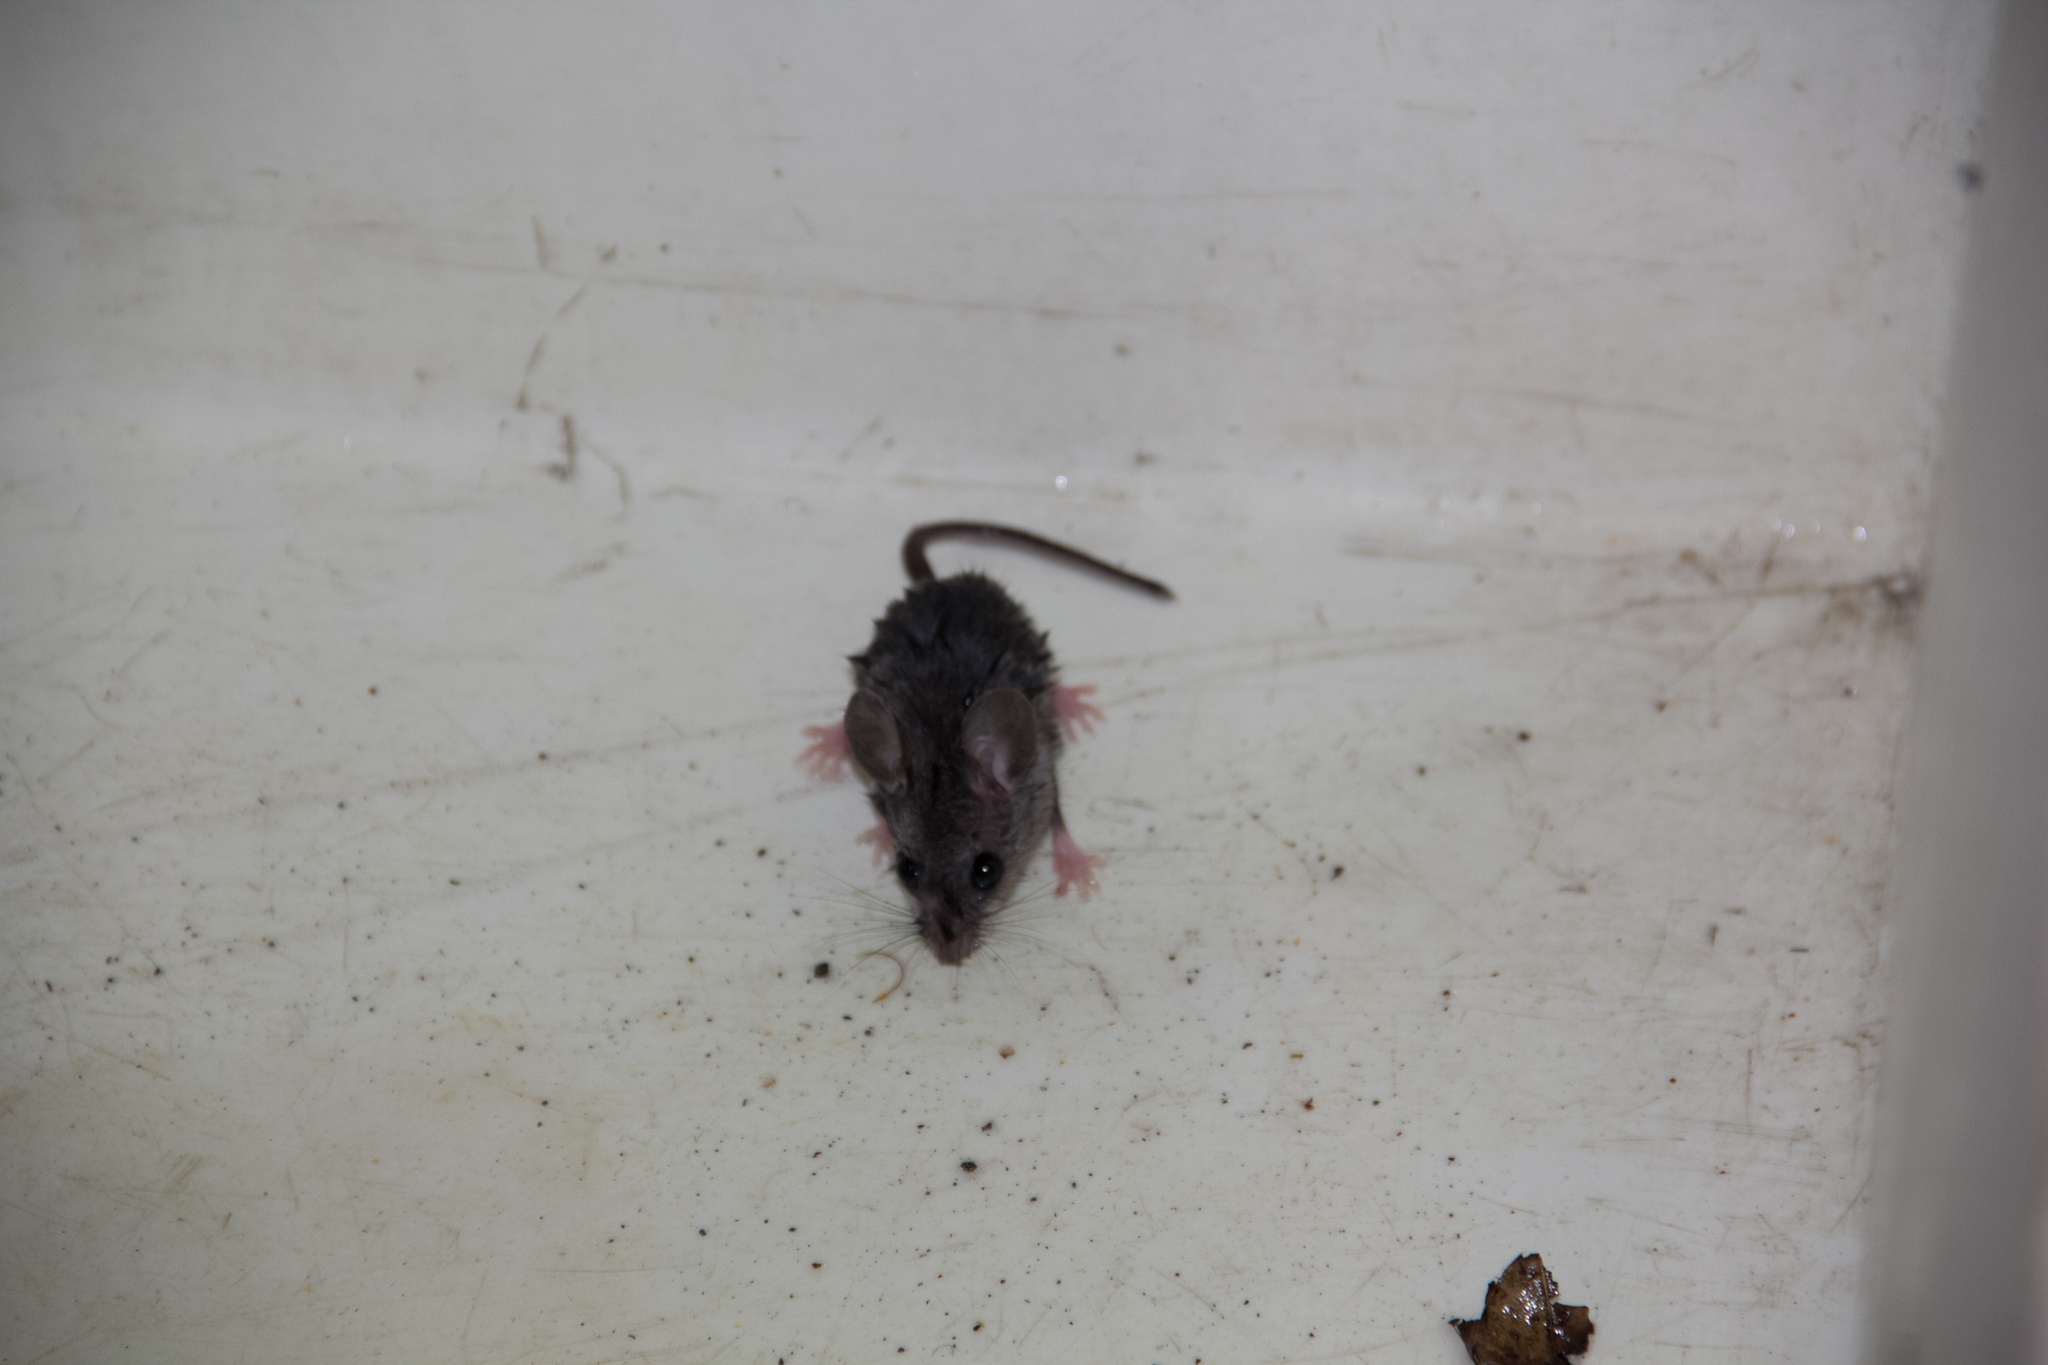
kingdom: Animalia
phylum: Chordata
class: Mammalia
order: Rodentia
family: Muridae
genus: Mus
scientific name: Mus musculus
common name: House mouse
